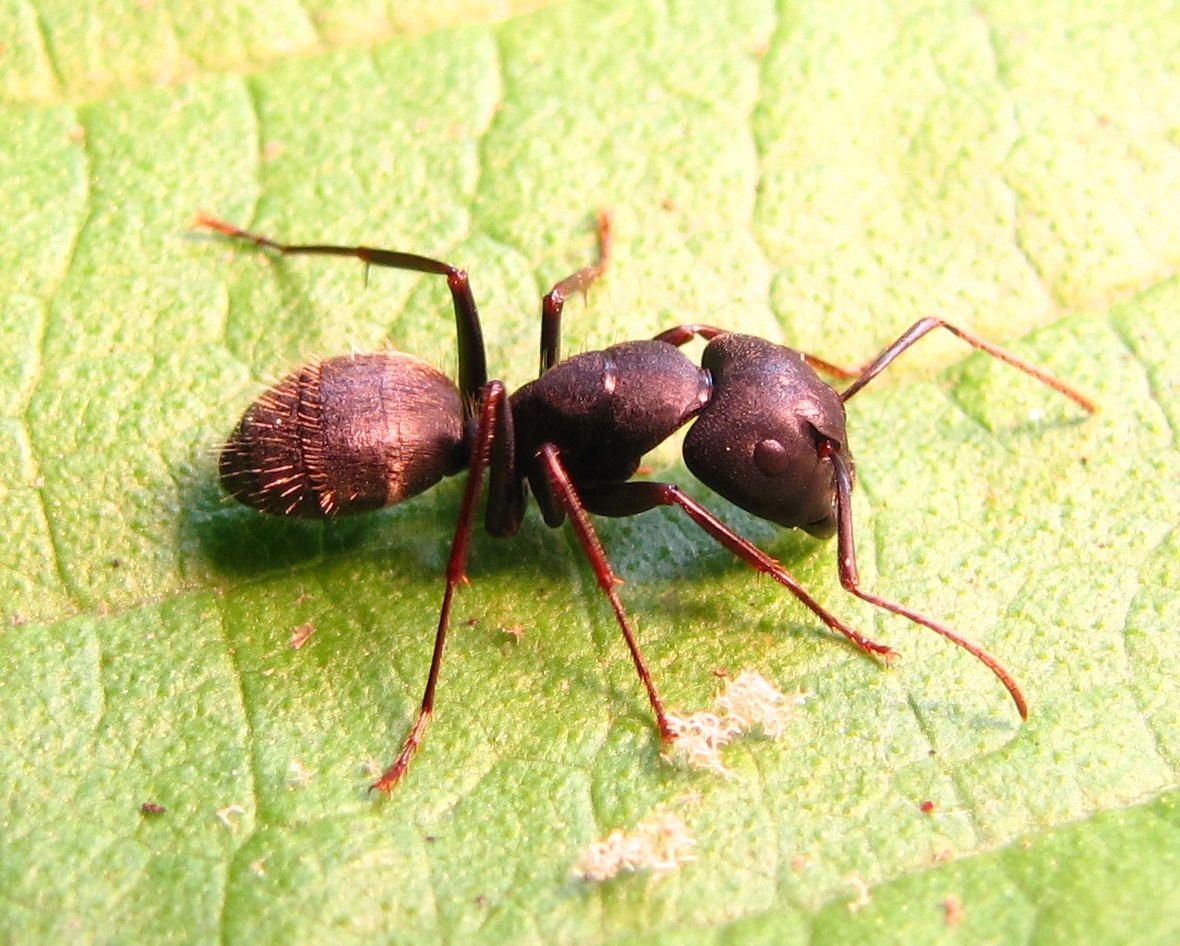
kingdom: Animalia
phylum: Arthropoda
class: Insecta
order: Hymenoptera
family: Formicidae
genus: Camponotus
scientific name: Camponotus pennsylvanicus
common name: Black carpenter ant
